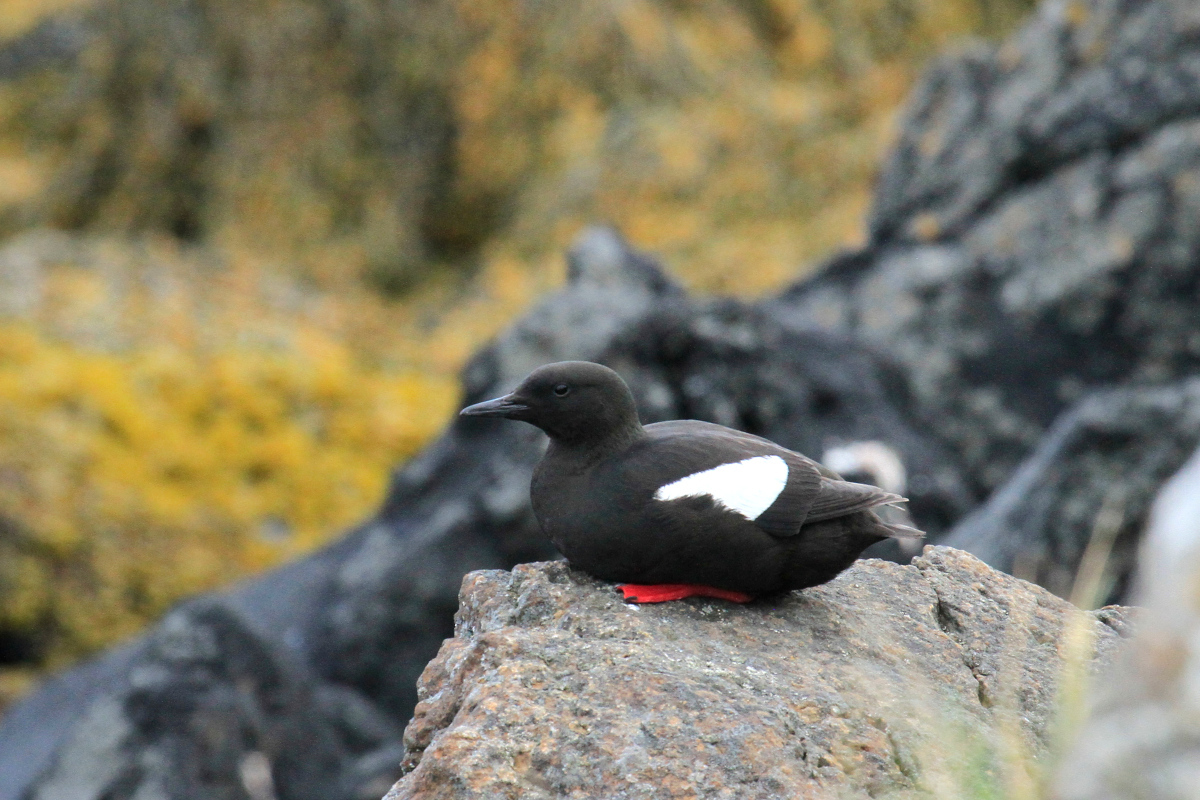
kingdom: Animalia
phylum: Chordata
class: Aves
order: Charadriiformes
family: Alcidae
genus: Cepphus
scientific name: Cepphus grylle
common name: Black guillemot
